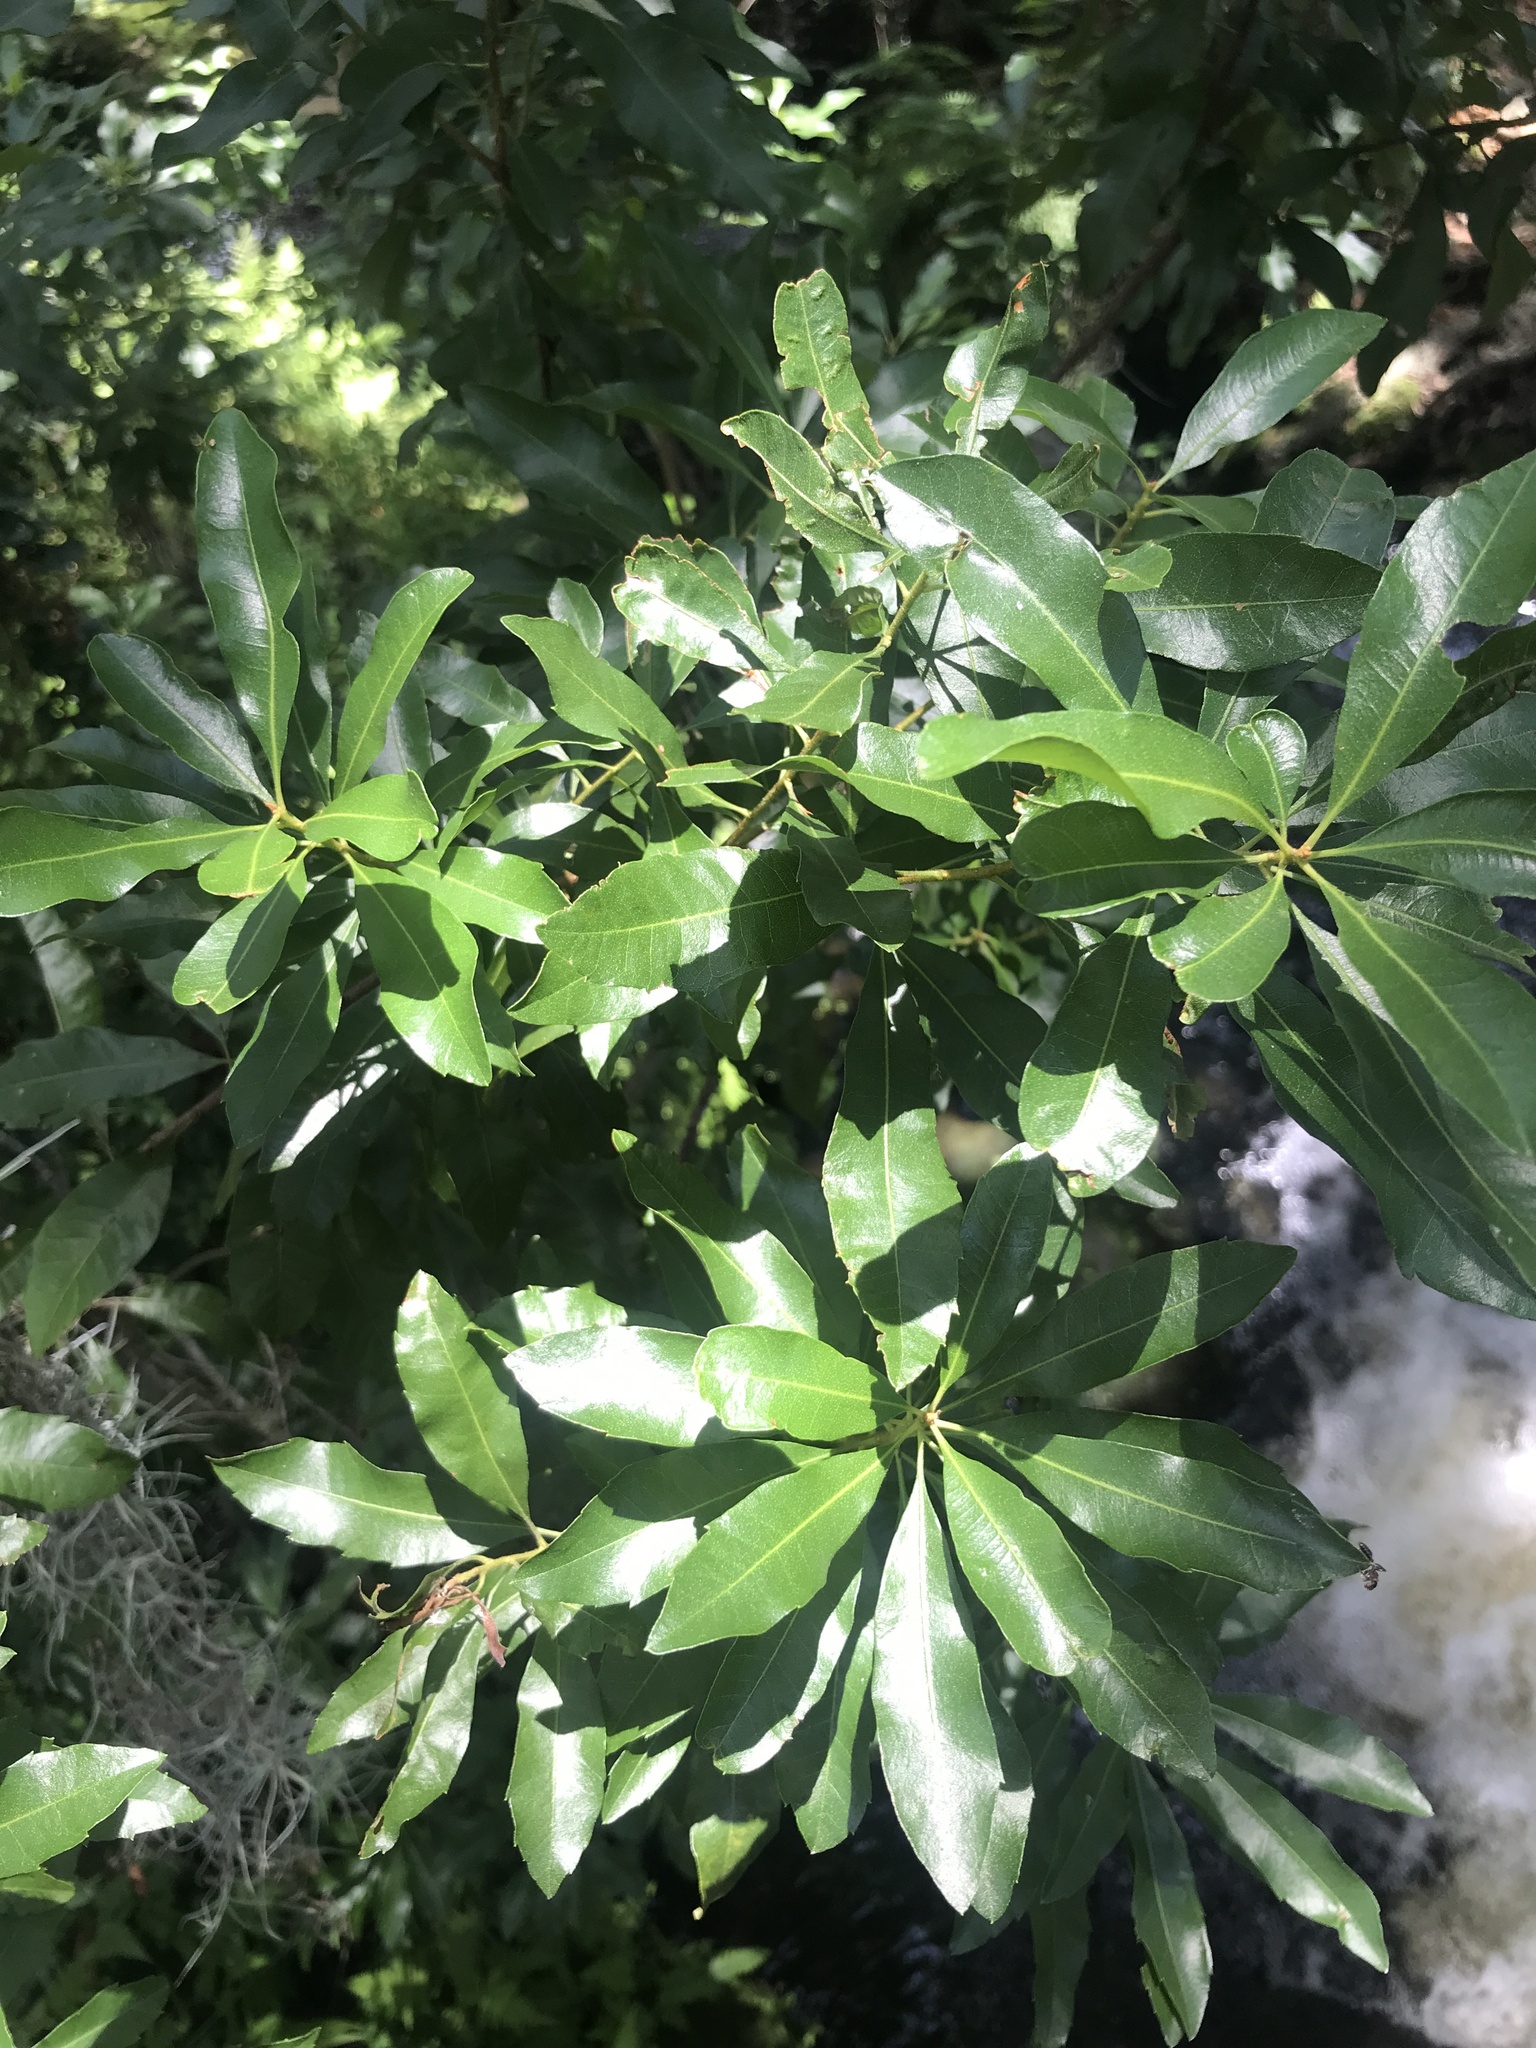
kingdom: Plantae
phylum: Tracheophyta
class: Magnoliopsida
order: Fagales
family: Myricaceae
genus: Morella
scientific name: Morella cerifera
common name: Wax myrtle
